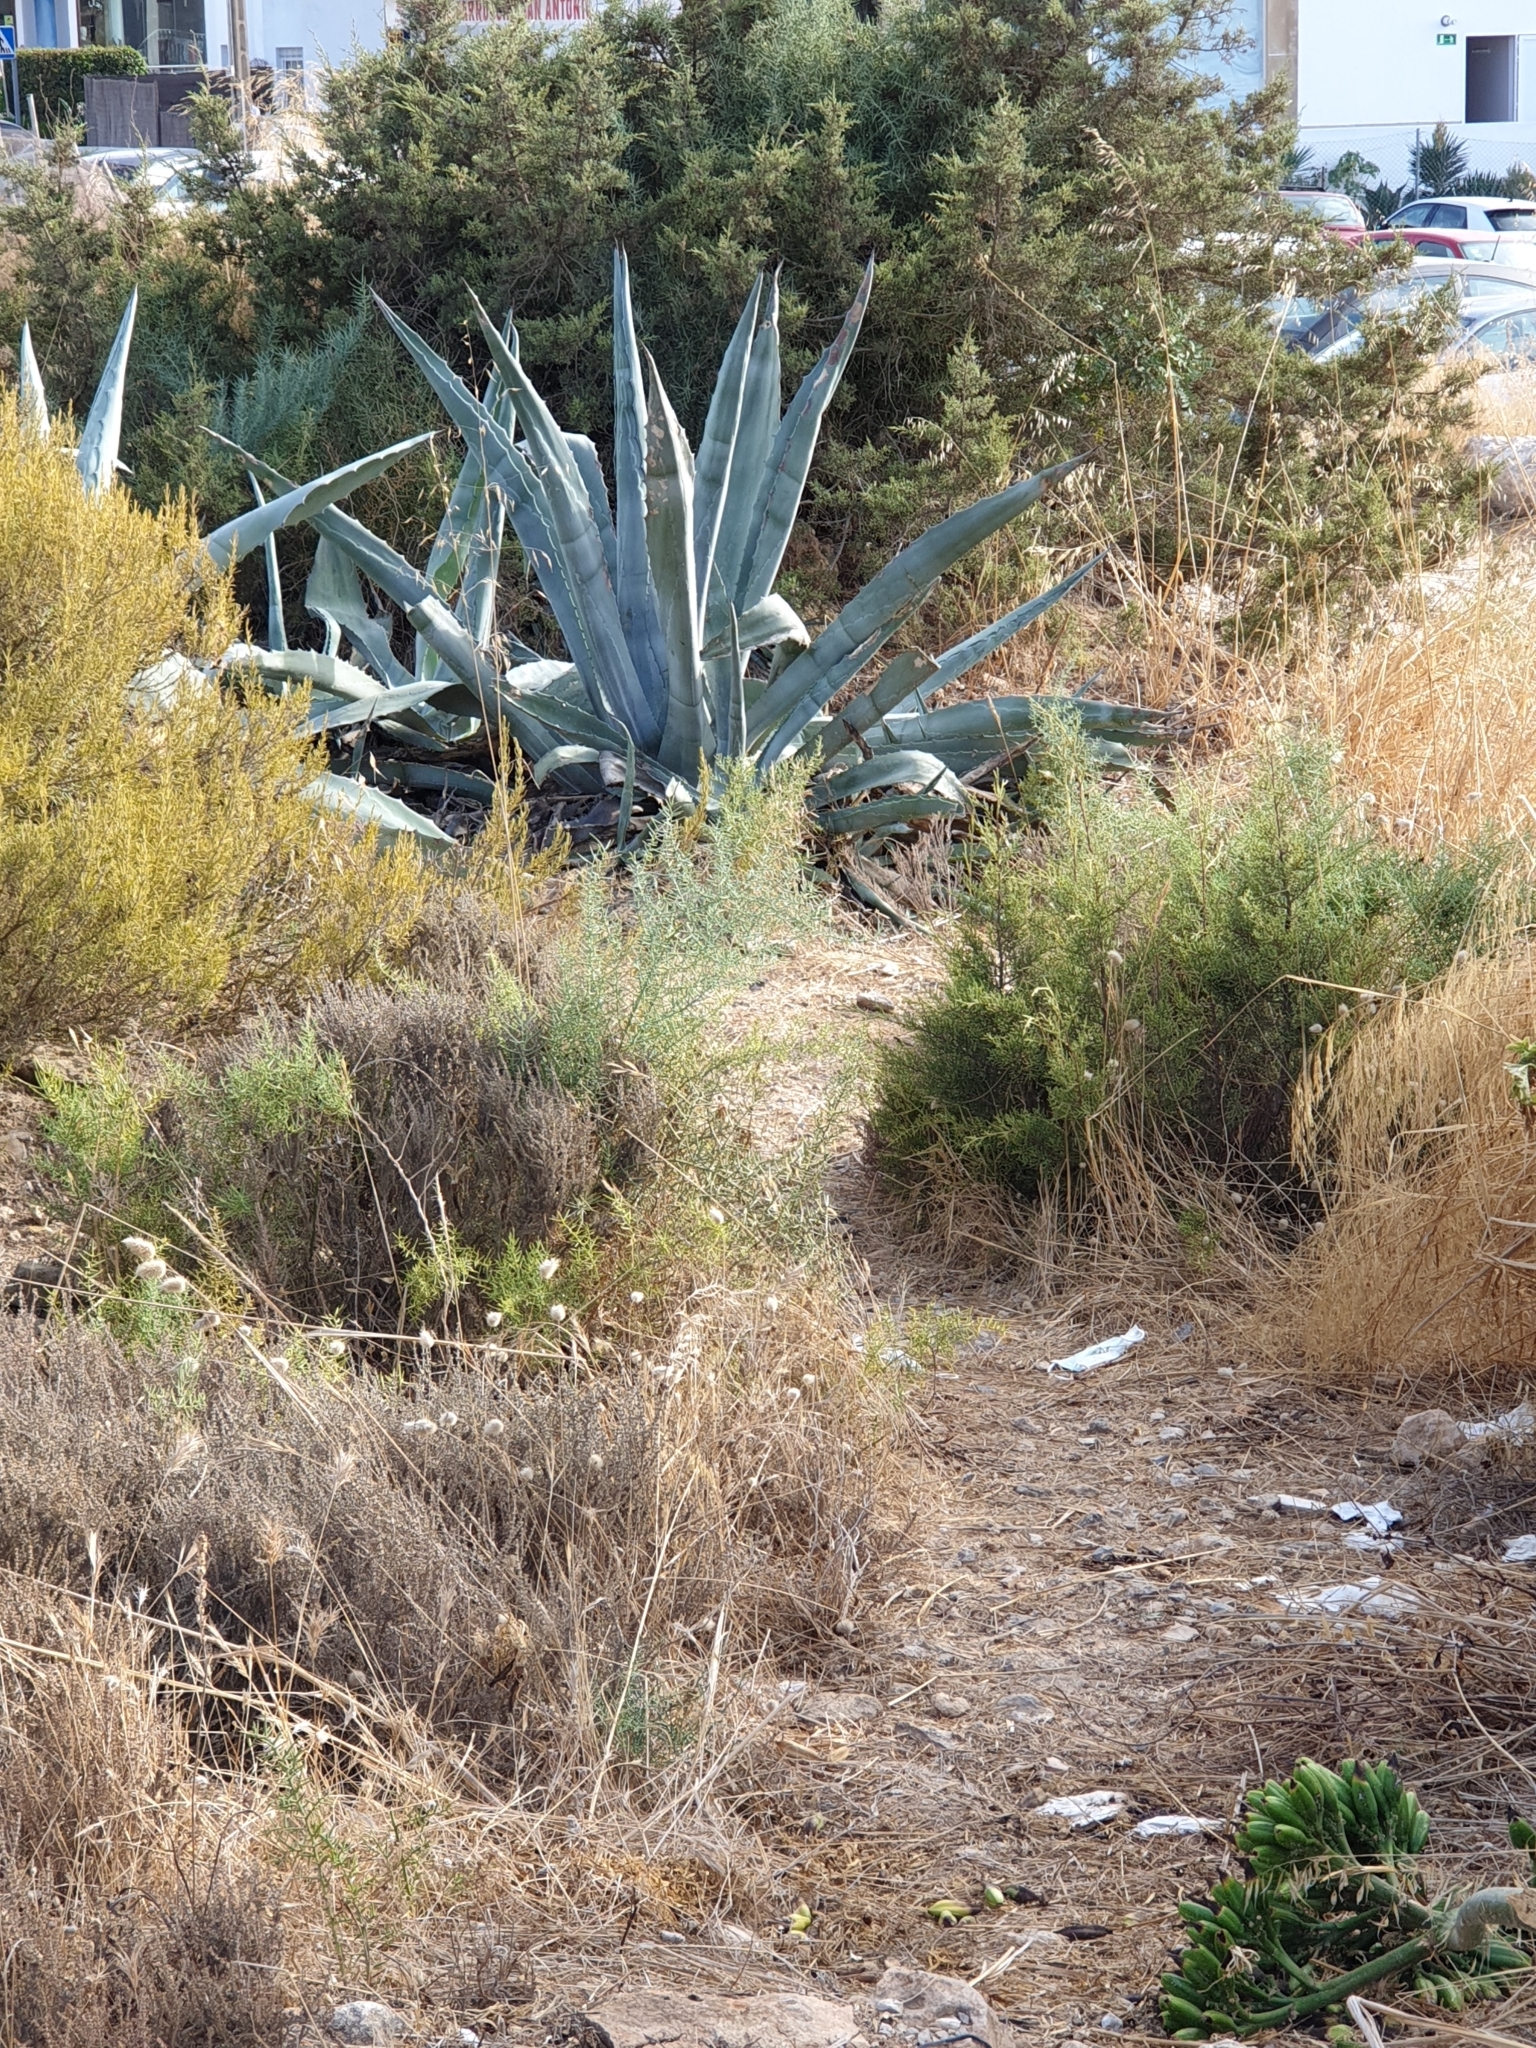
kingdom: Plantae
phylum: Tracheophyta
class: Liliopsida
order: Asparagales
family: Asparagaceae
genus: Agave
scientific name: Agave americana
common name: Centuryplant
